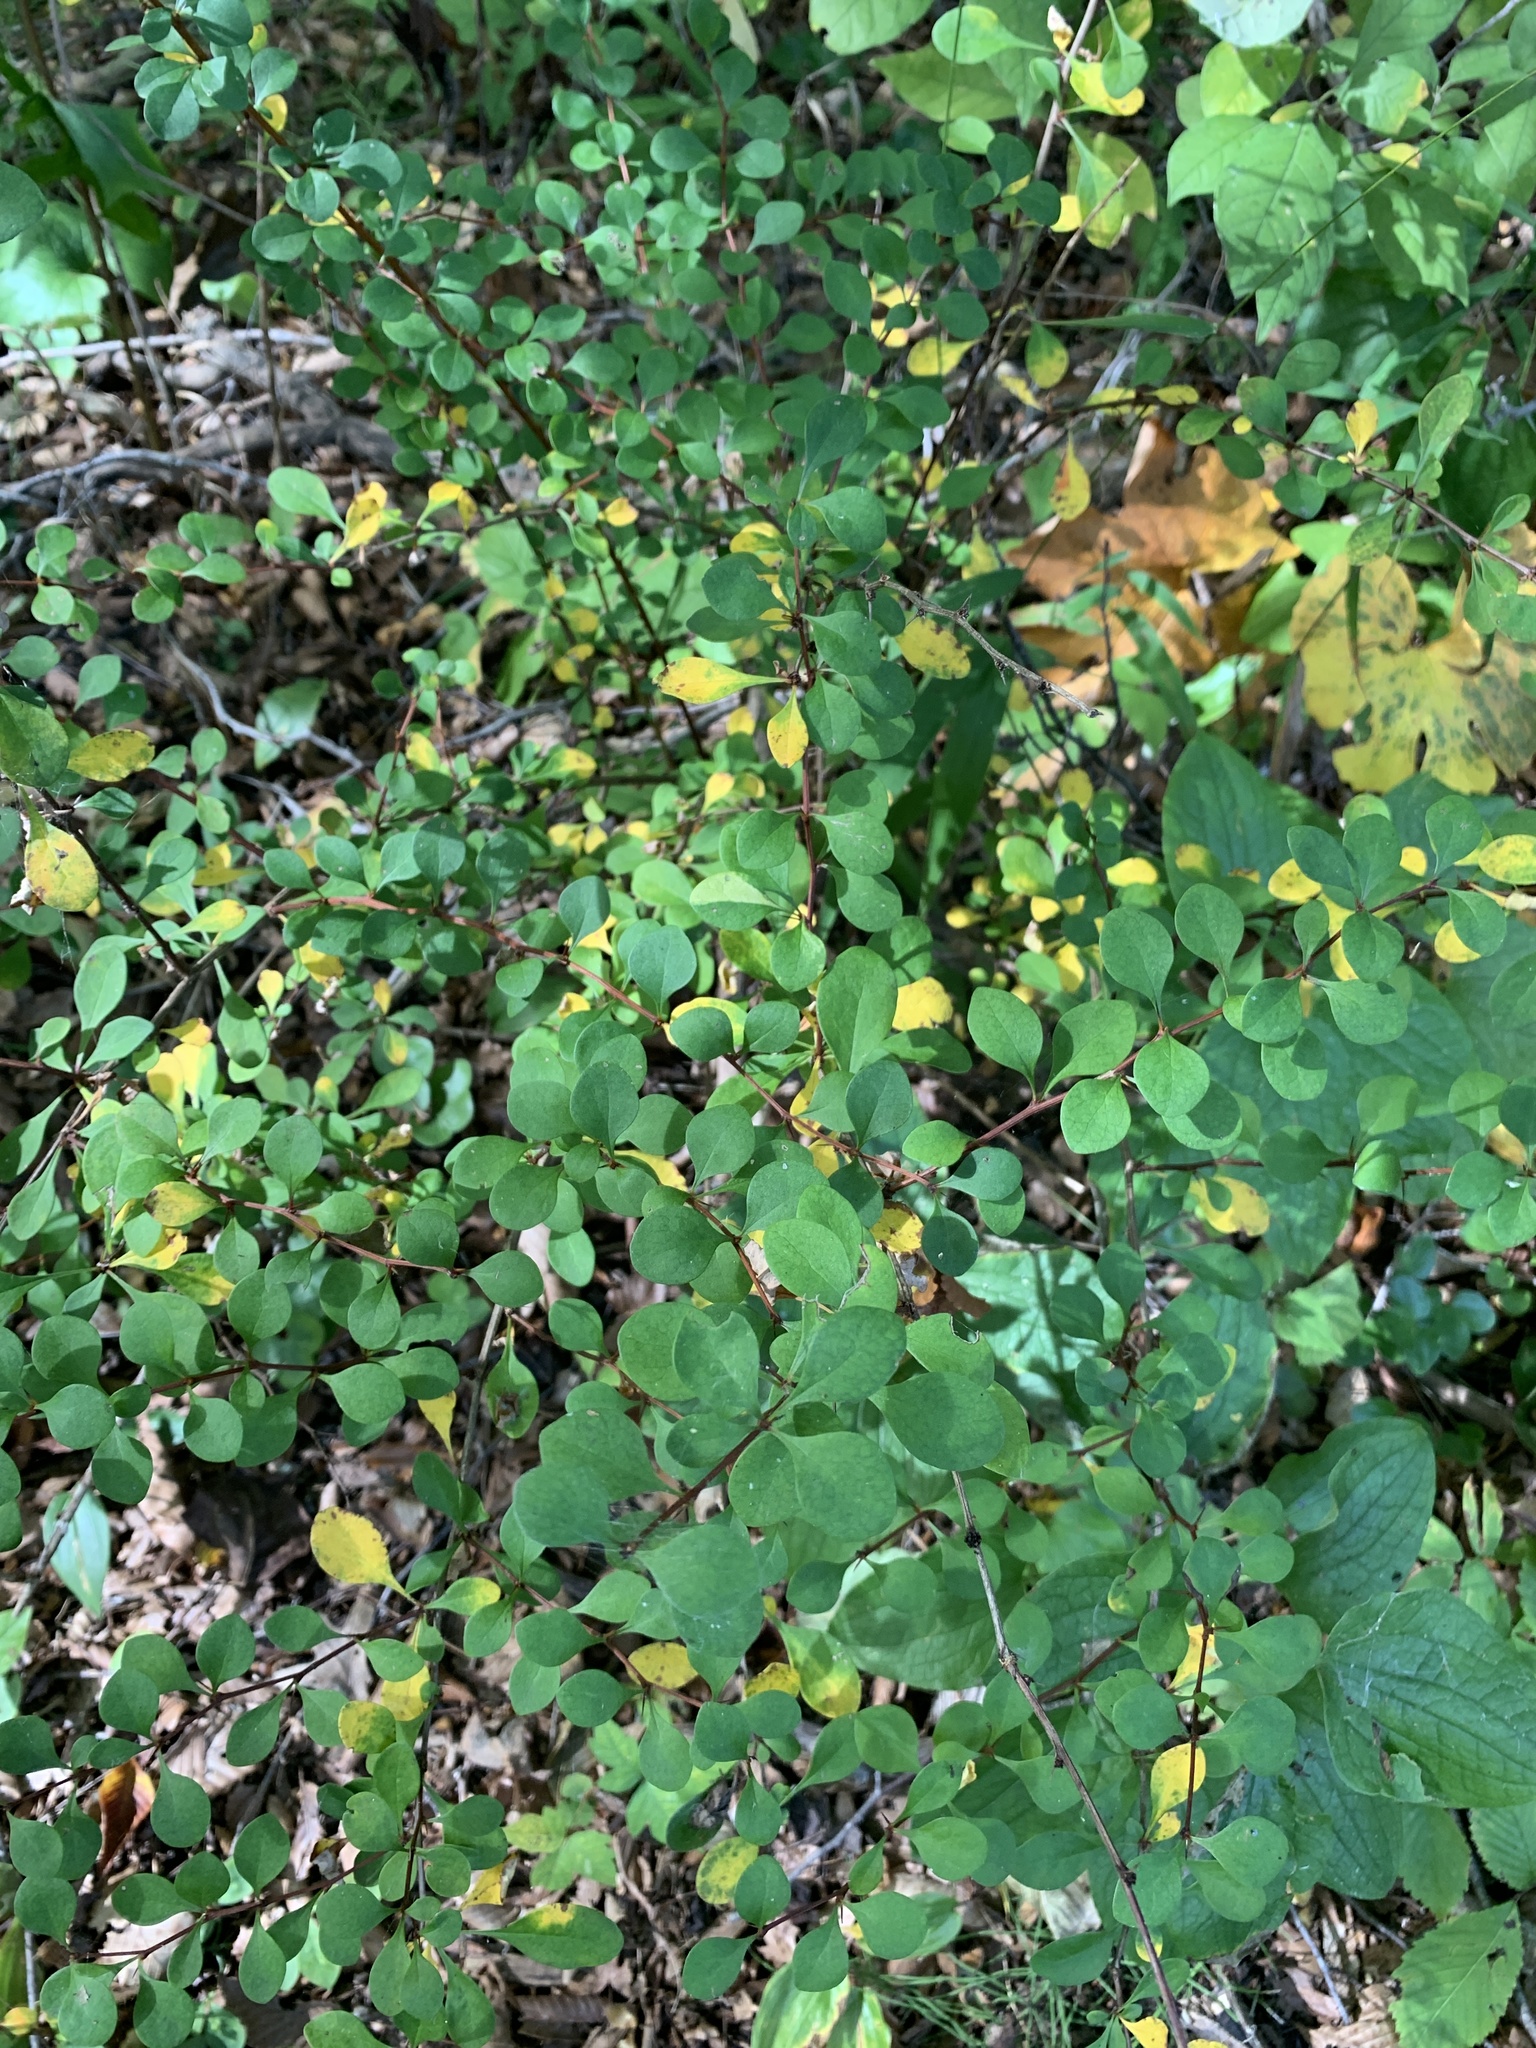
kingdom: Plantae
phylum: Tracheophyta
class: Magnoliopsida
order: Ranunculales
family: Berberidaceae
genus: Berberis
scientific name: Berberis thunbergii
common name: Japanese barberry
